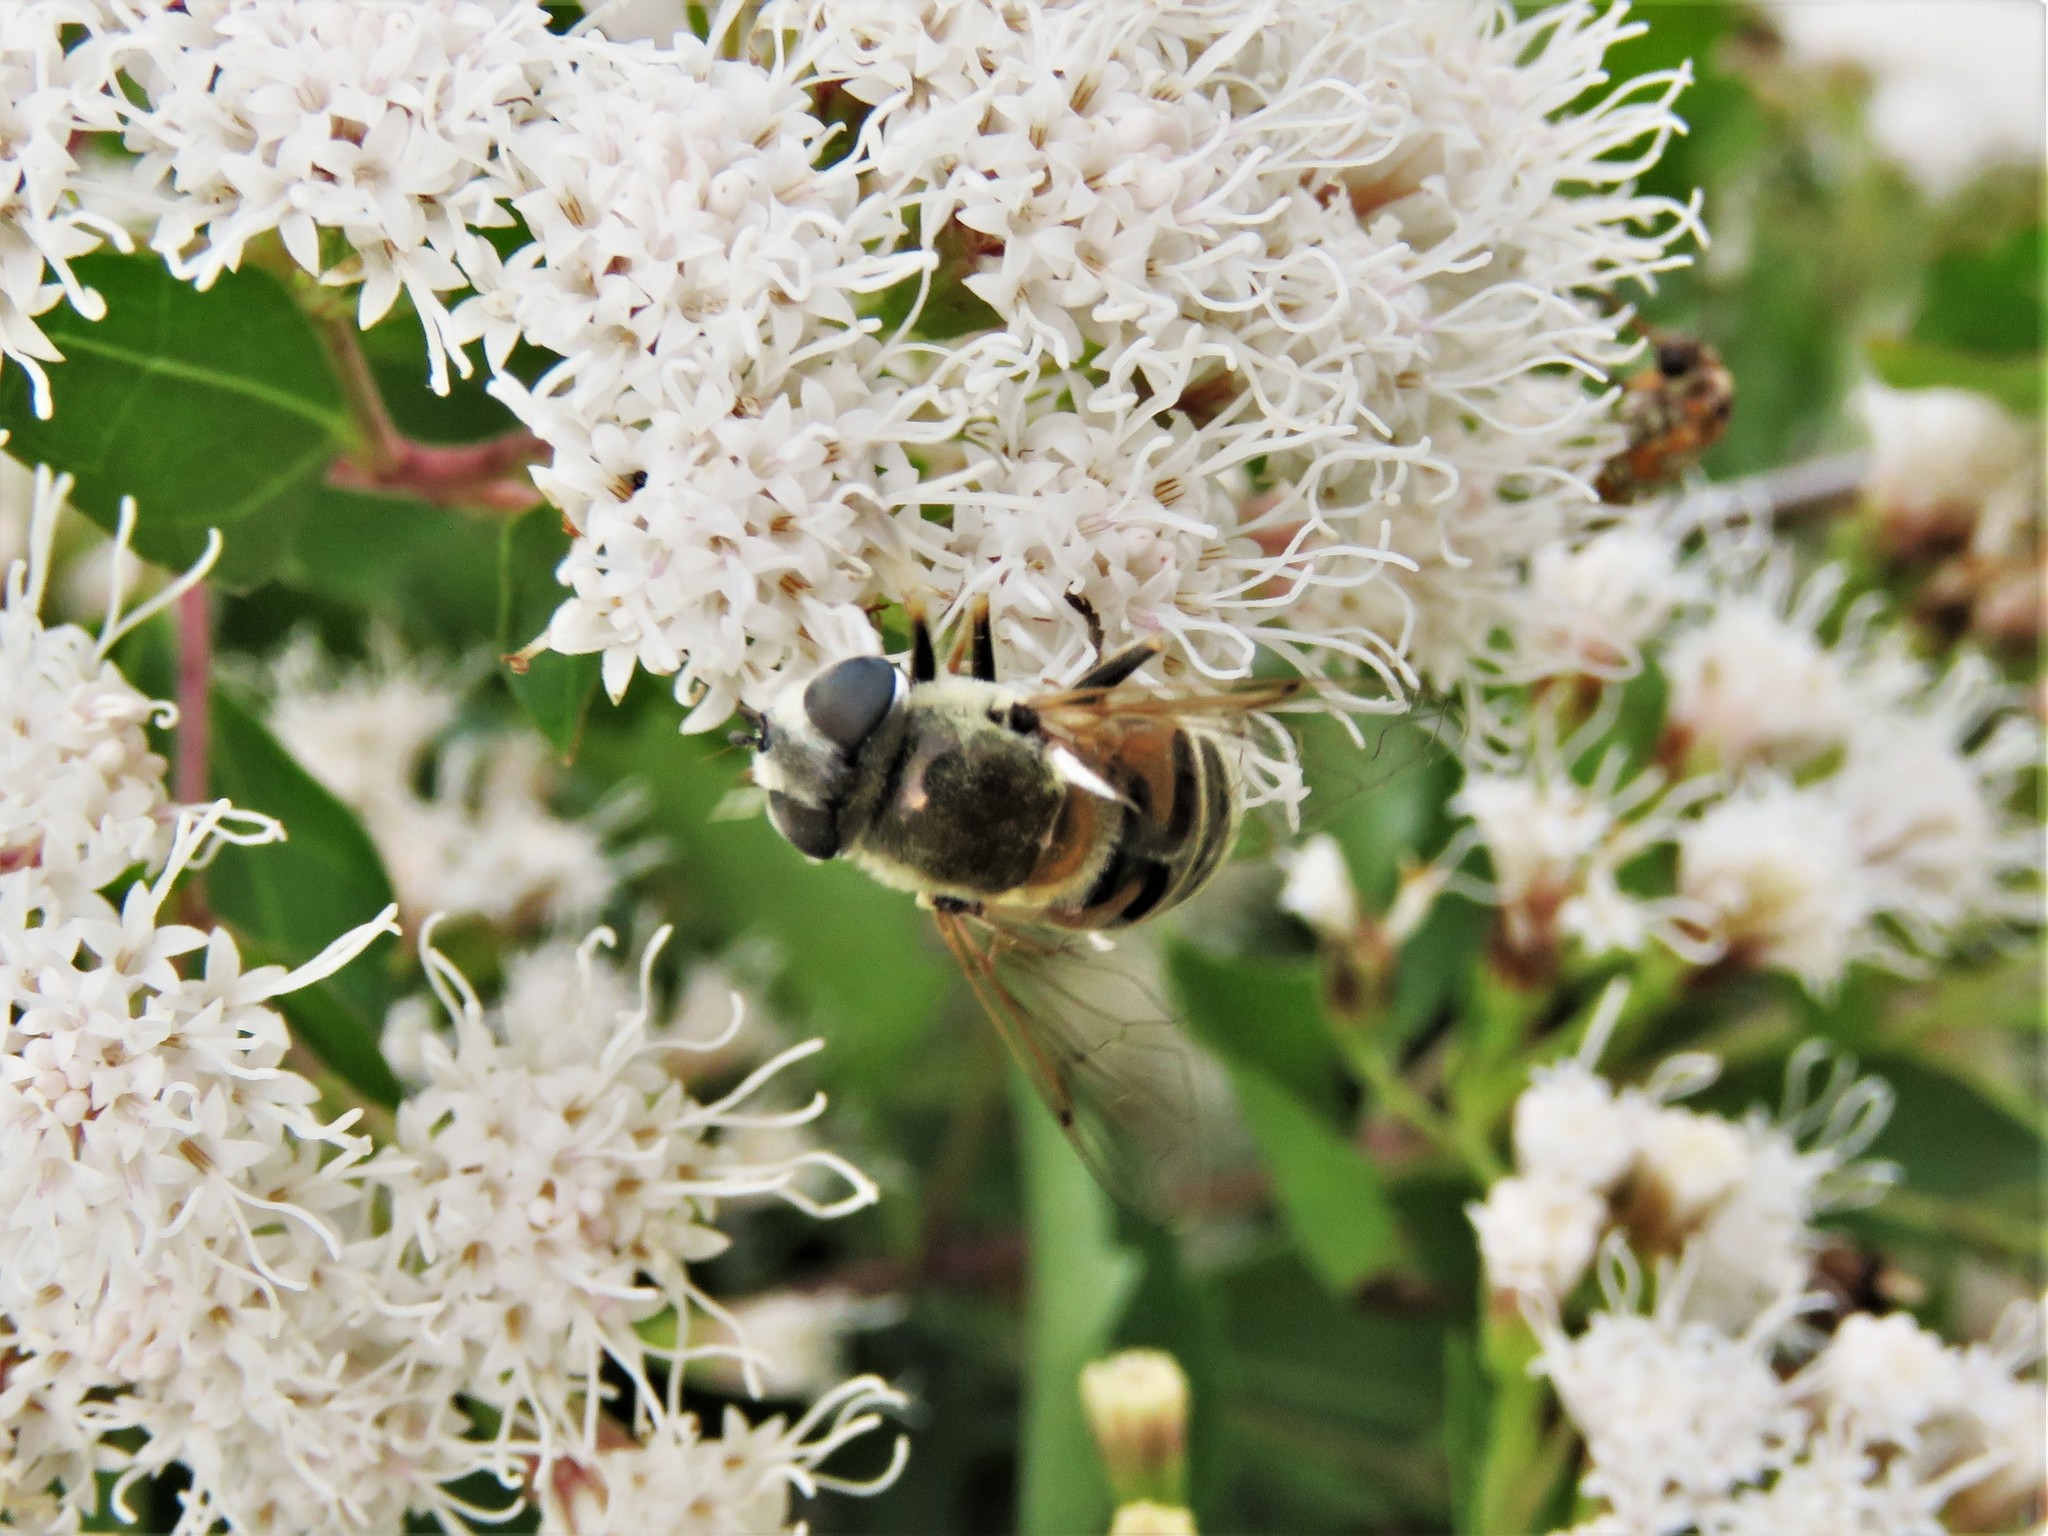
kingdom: Animalia
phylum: Arthropoda
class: Insecta
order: Diptera
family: Syrphidae
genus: Eristalis
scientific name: Eristalis stipator
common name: Yellow-shouldered drone fly
